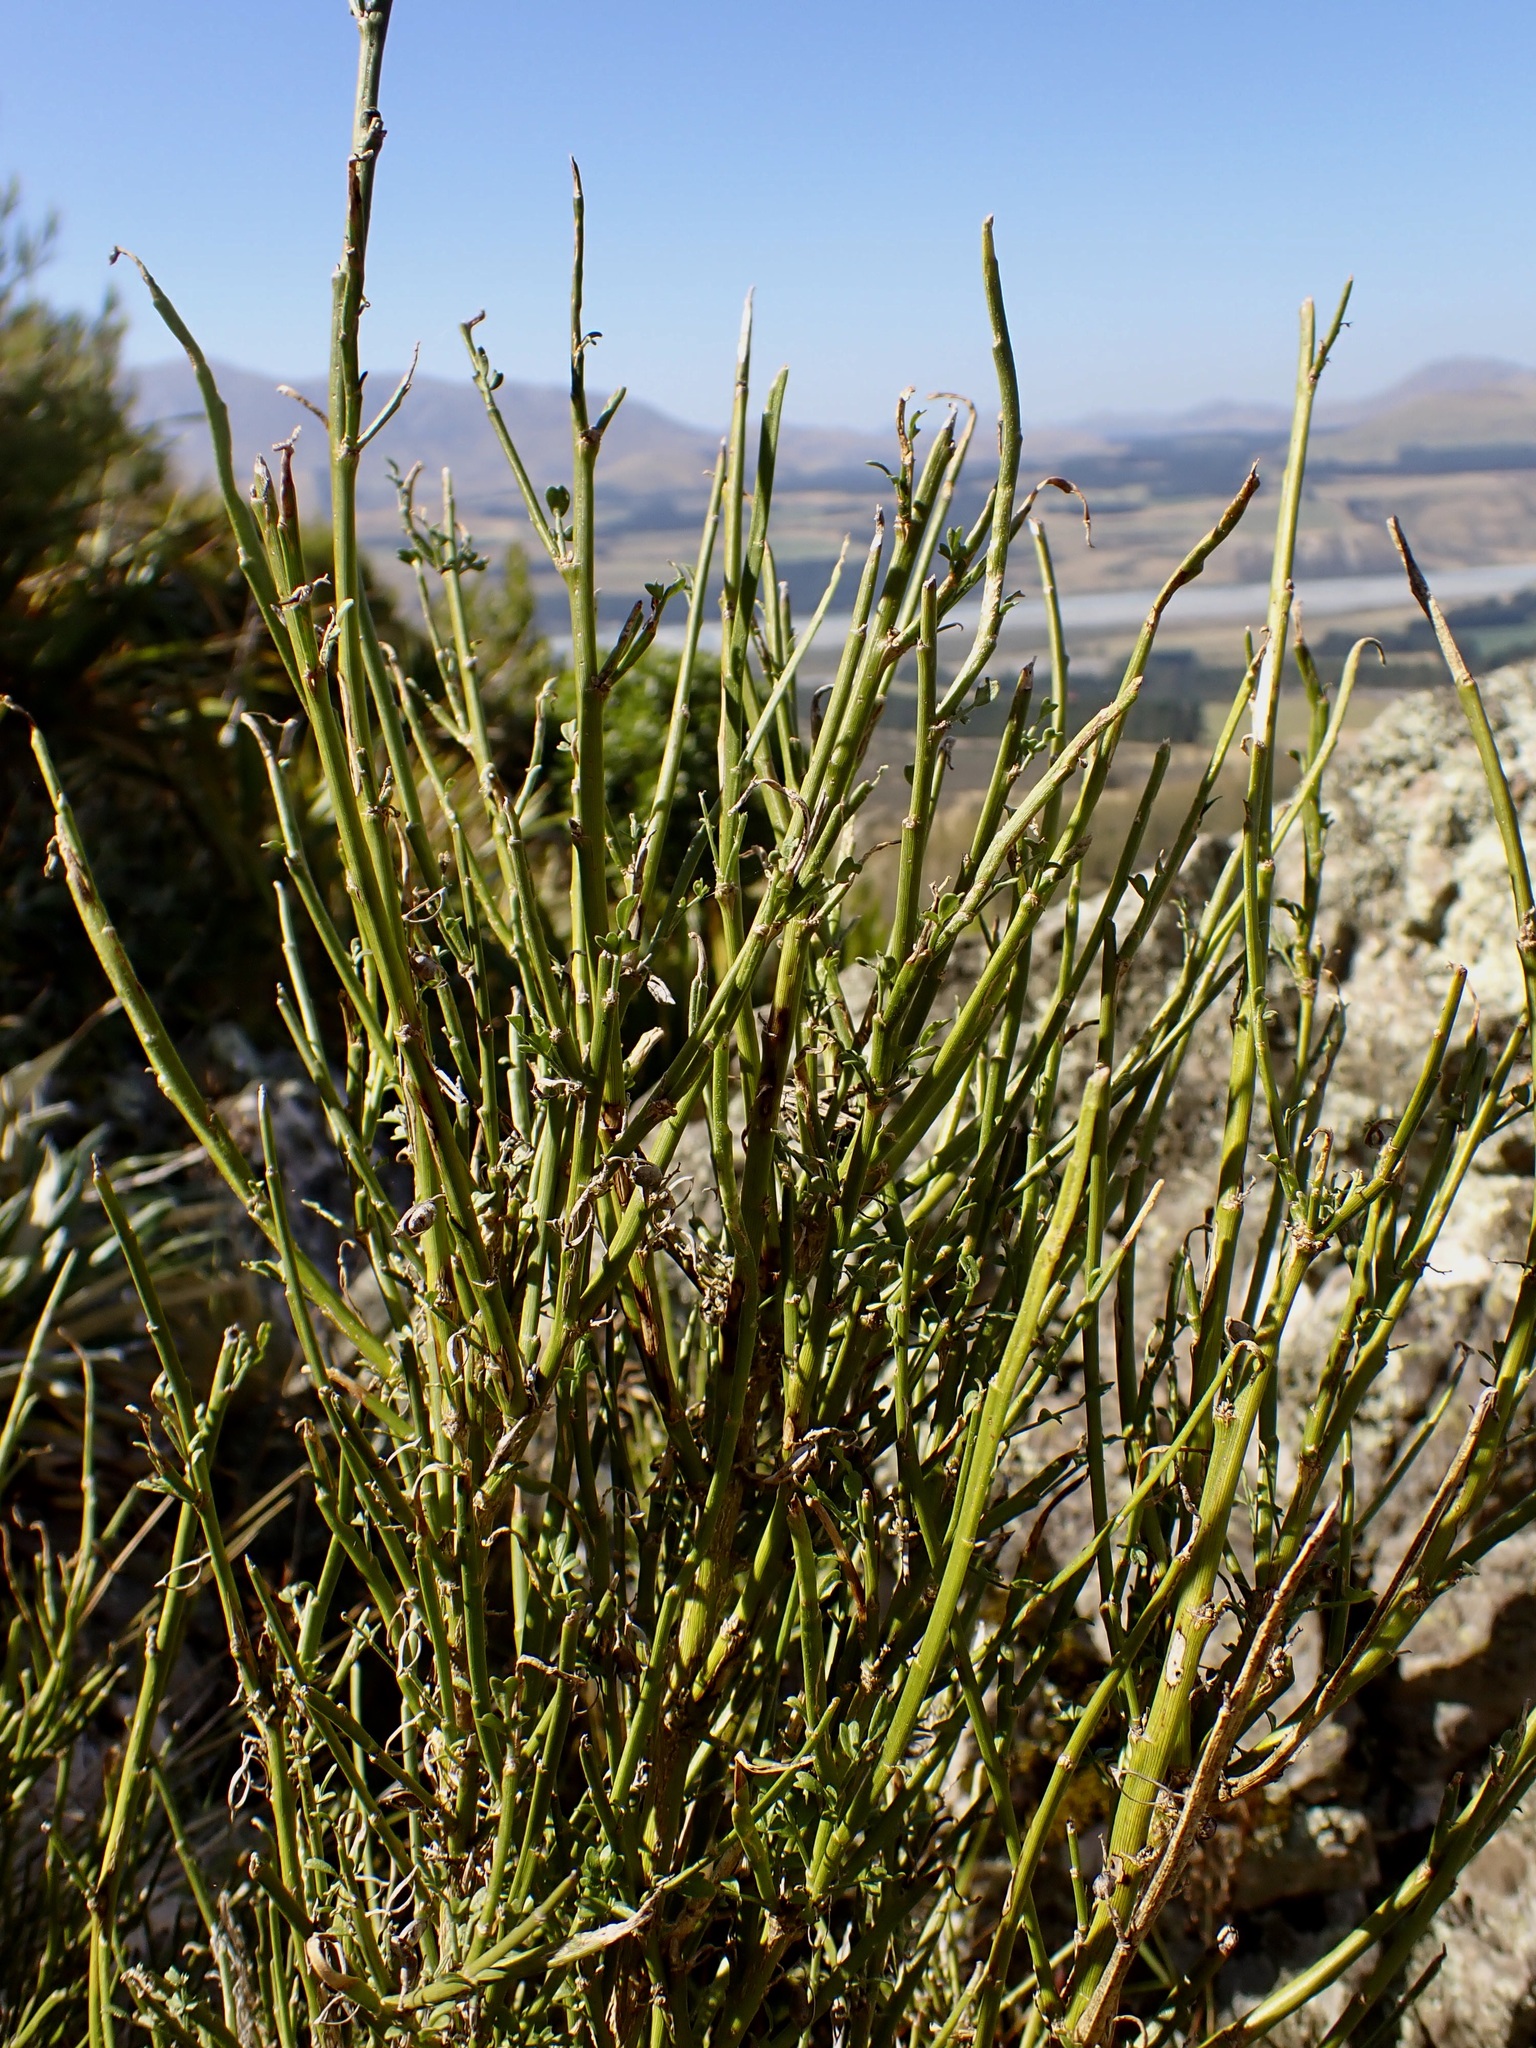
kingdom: Plantae
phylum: Tracheophyta
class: Magnoliopsida
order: Fabales
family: Fabaceae
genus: Carmichaelia
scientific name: Carmichaelia australis
